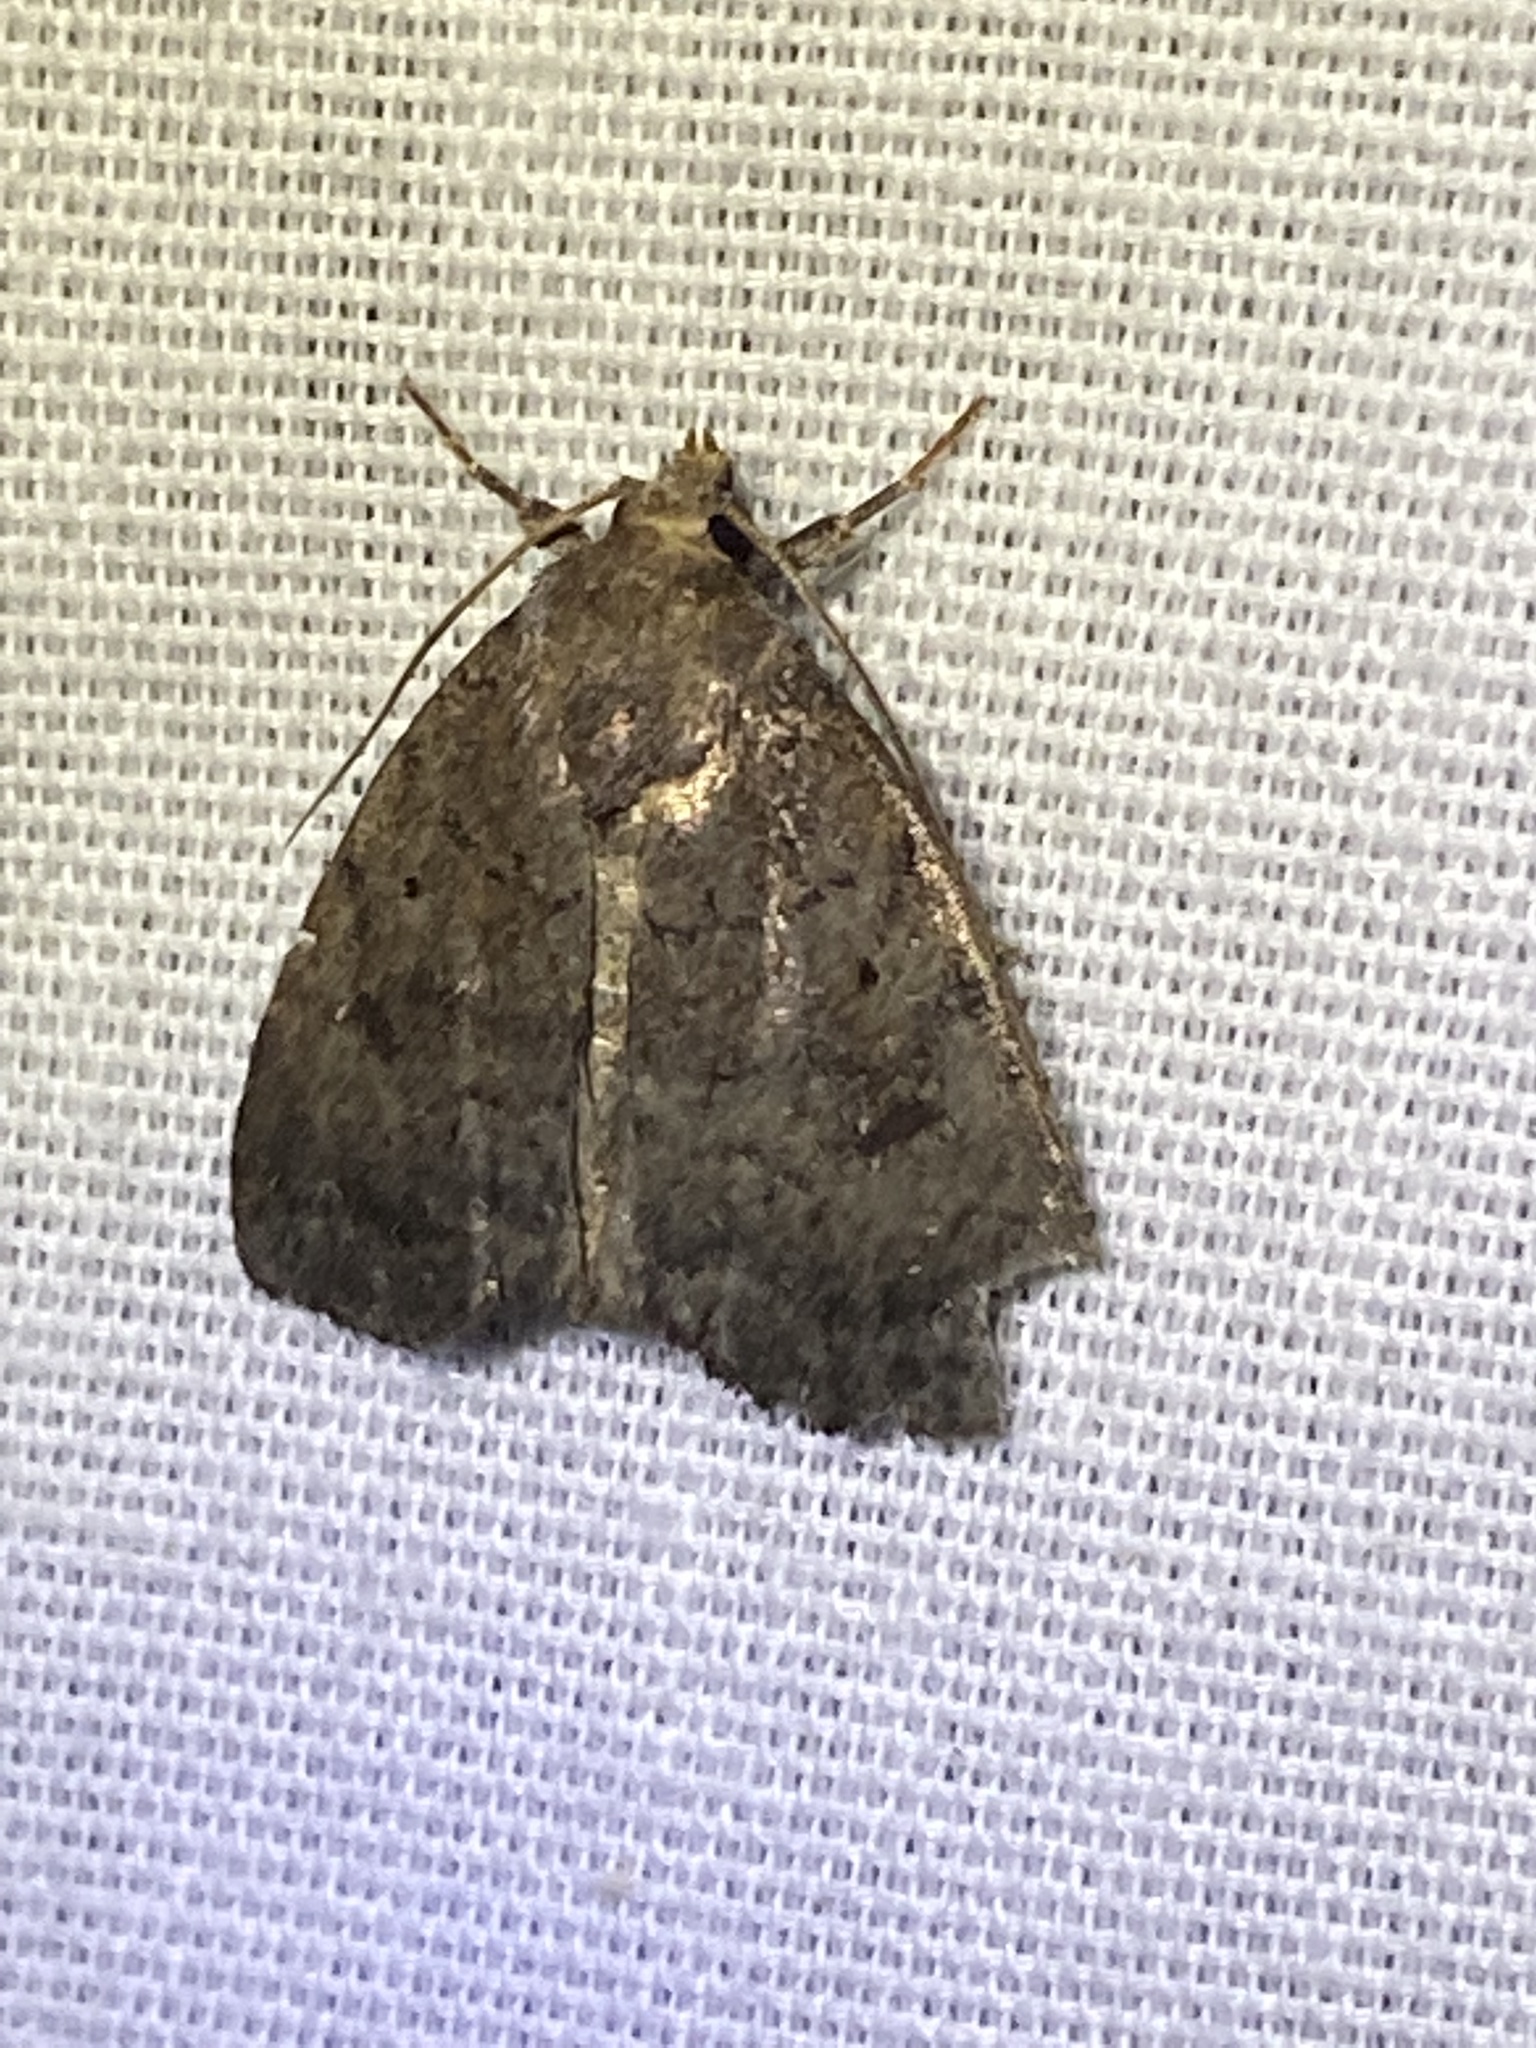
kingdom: Animalia
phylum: Arthropoda
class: Insecta
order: Lepidoptera
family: Noctuidae
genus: Athetis
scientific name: Athetis tarda
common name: Slowpoke moth
